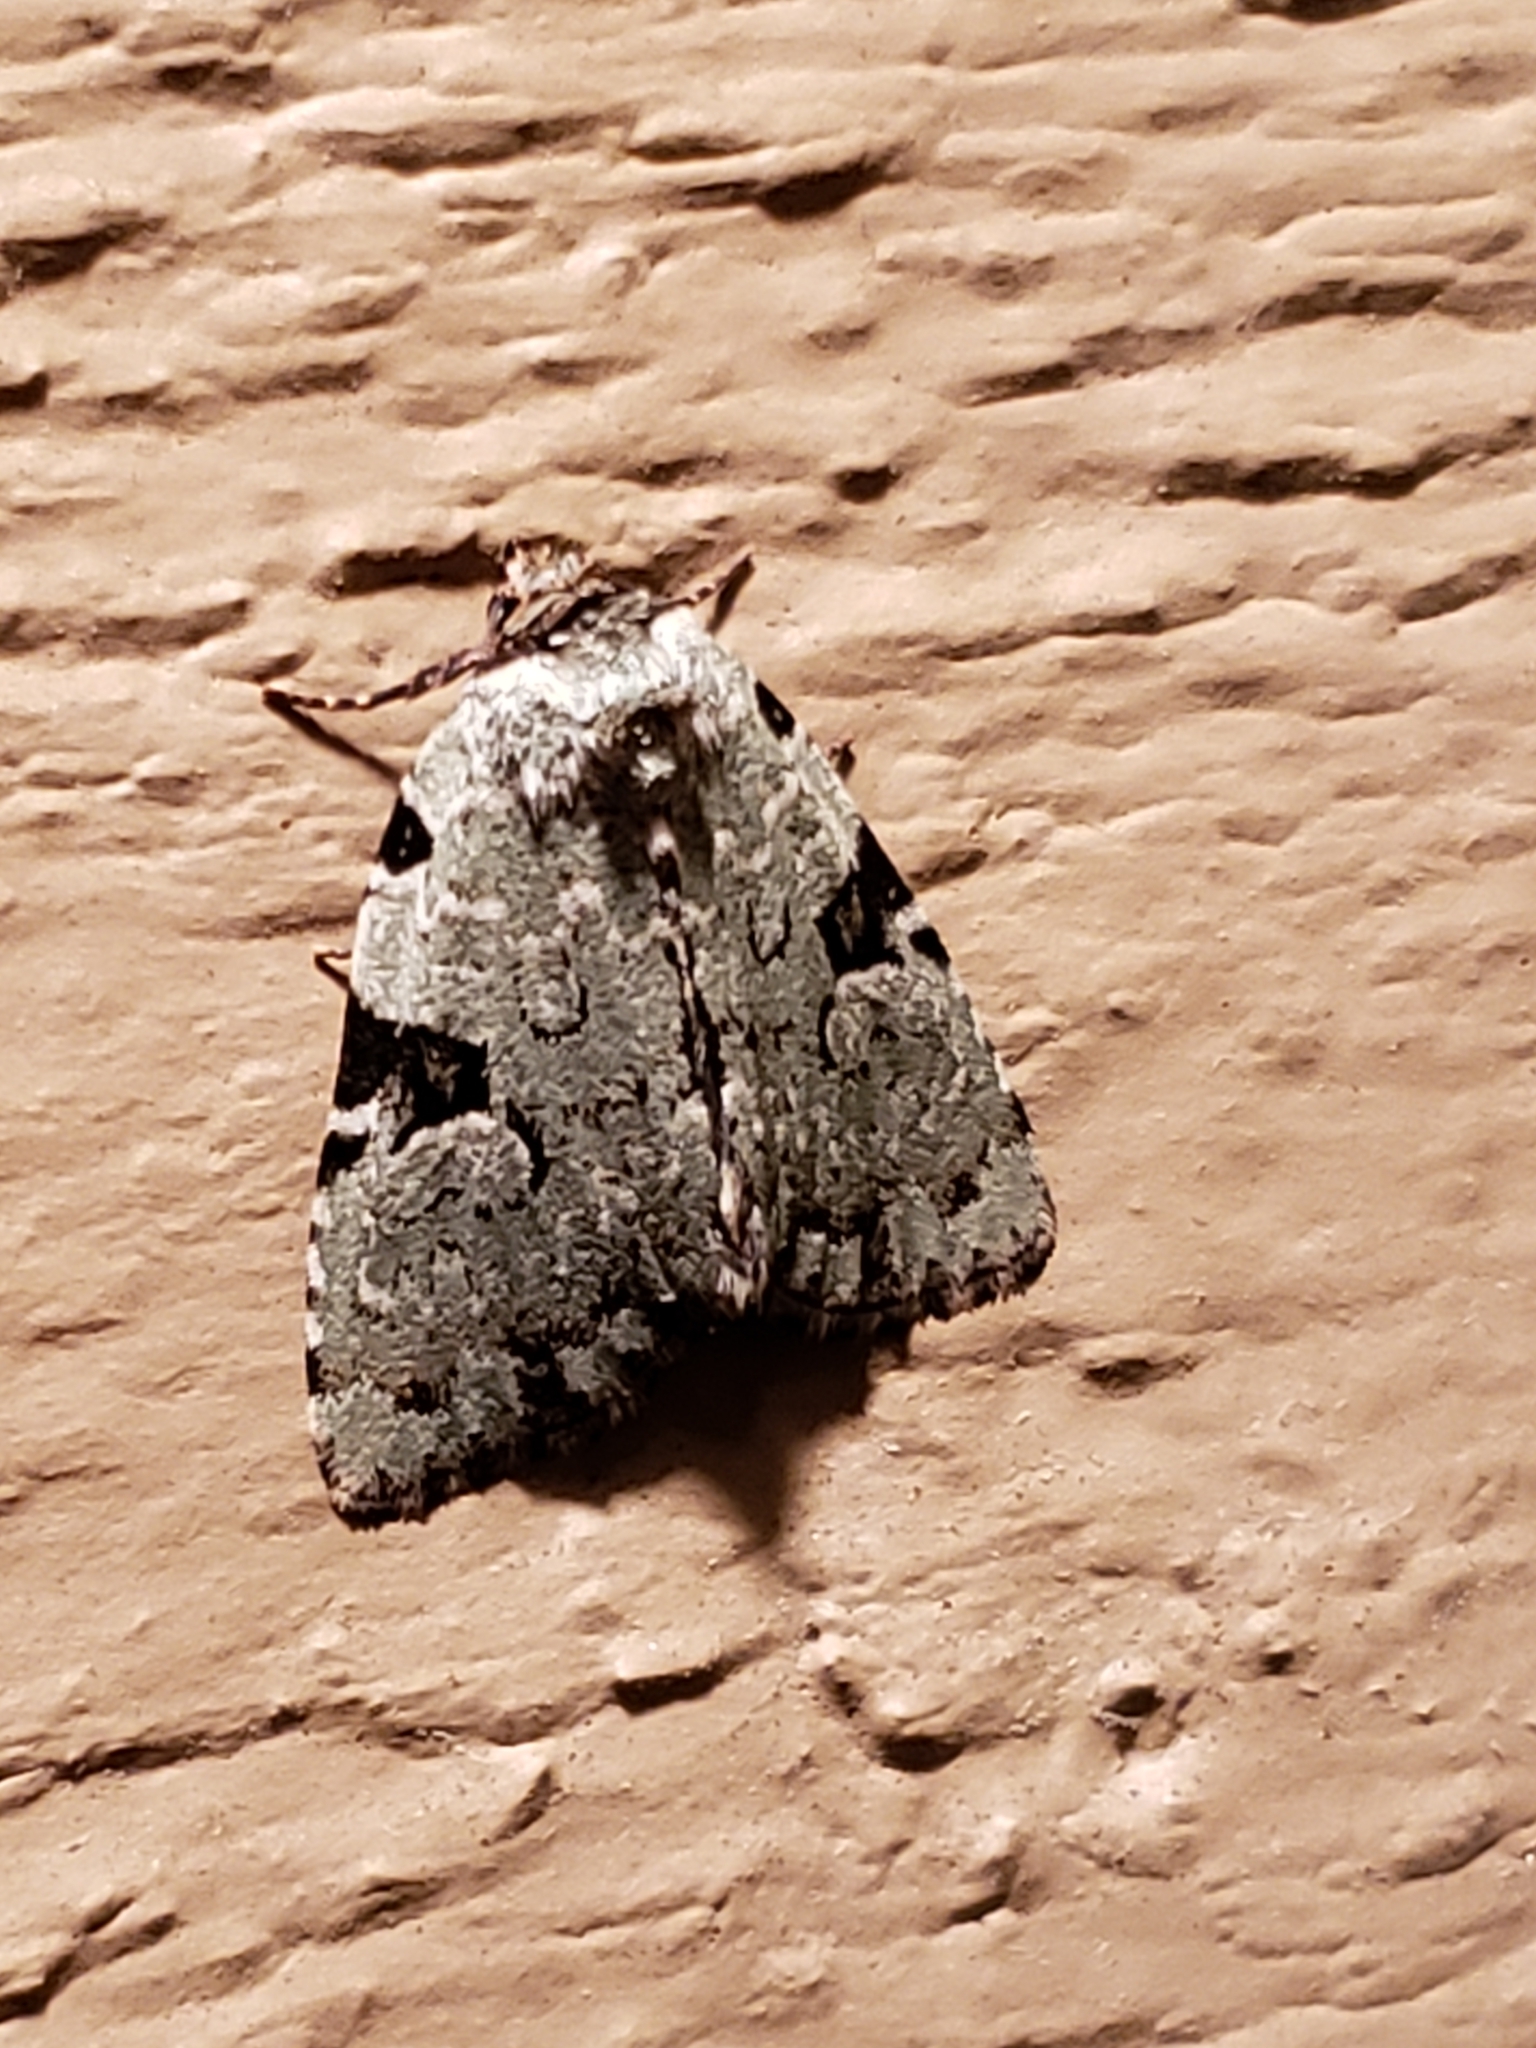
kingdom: Animalia
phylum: Arthropoda
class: Insecta
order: Lepidoptera
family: Noctuidae
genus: Leuconycta
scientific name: Leuconycta diphteroides
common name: Green leuconycta moth
